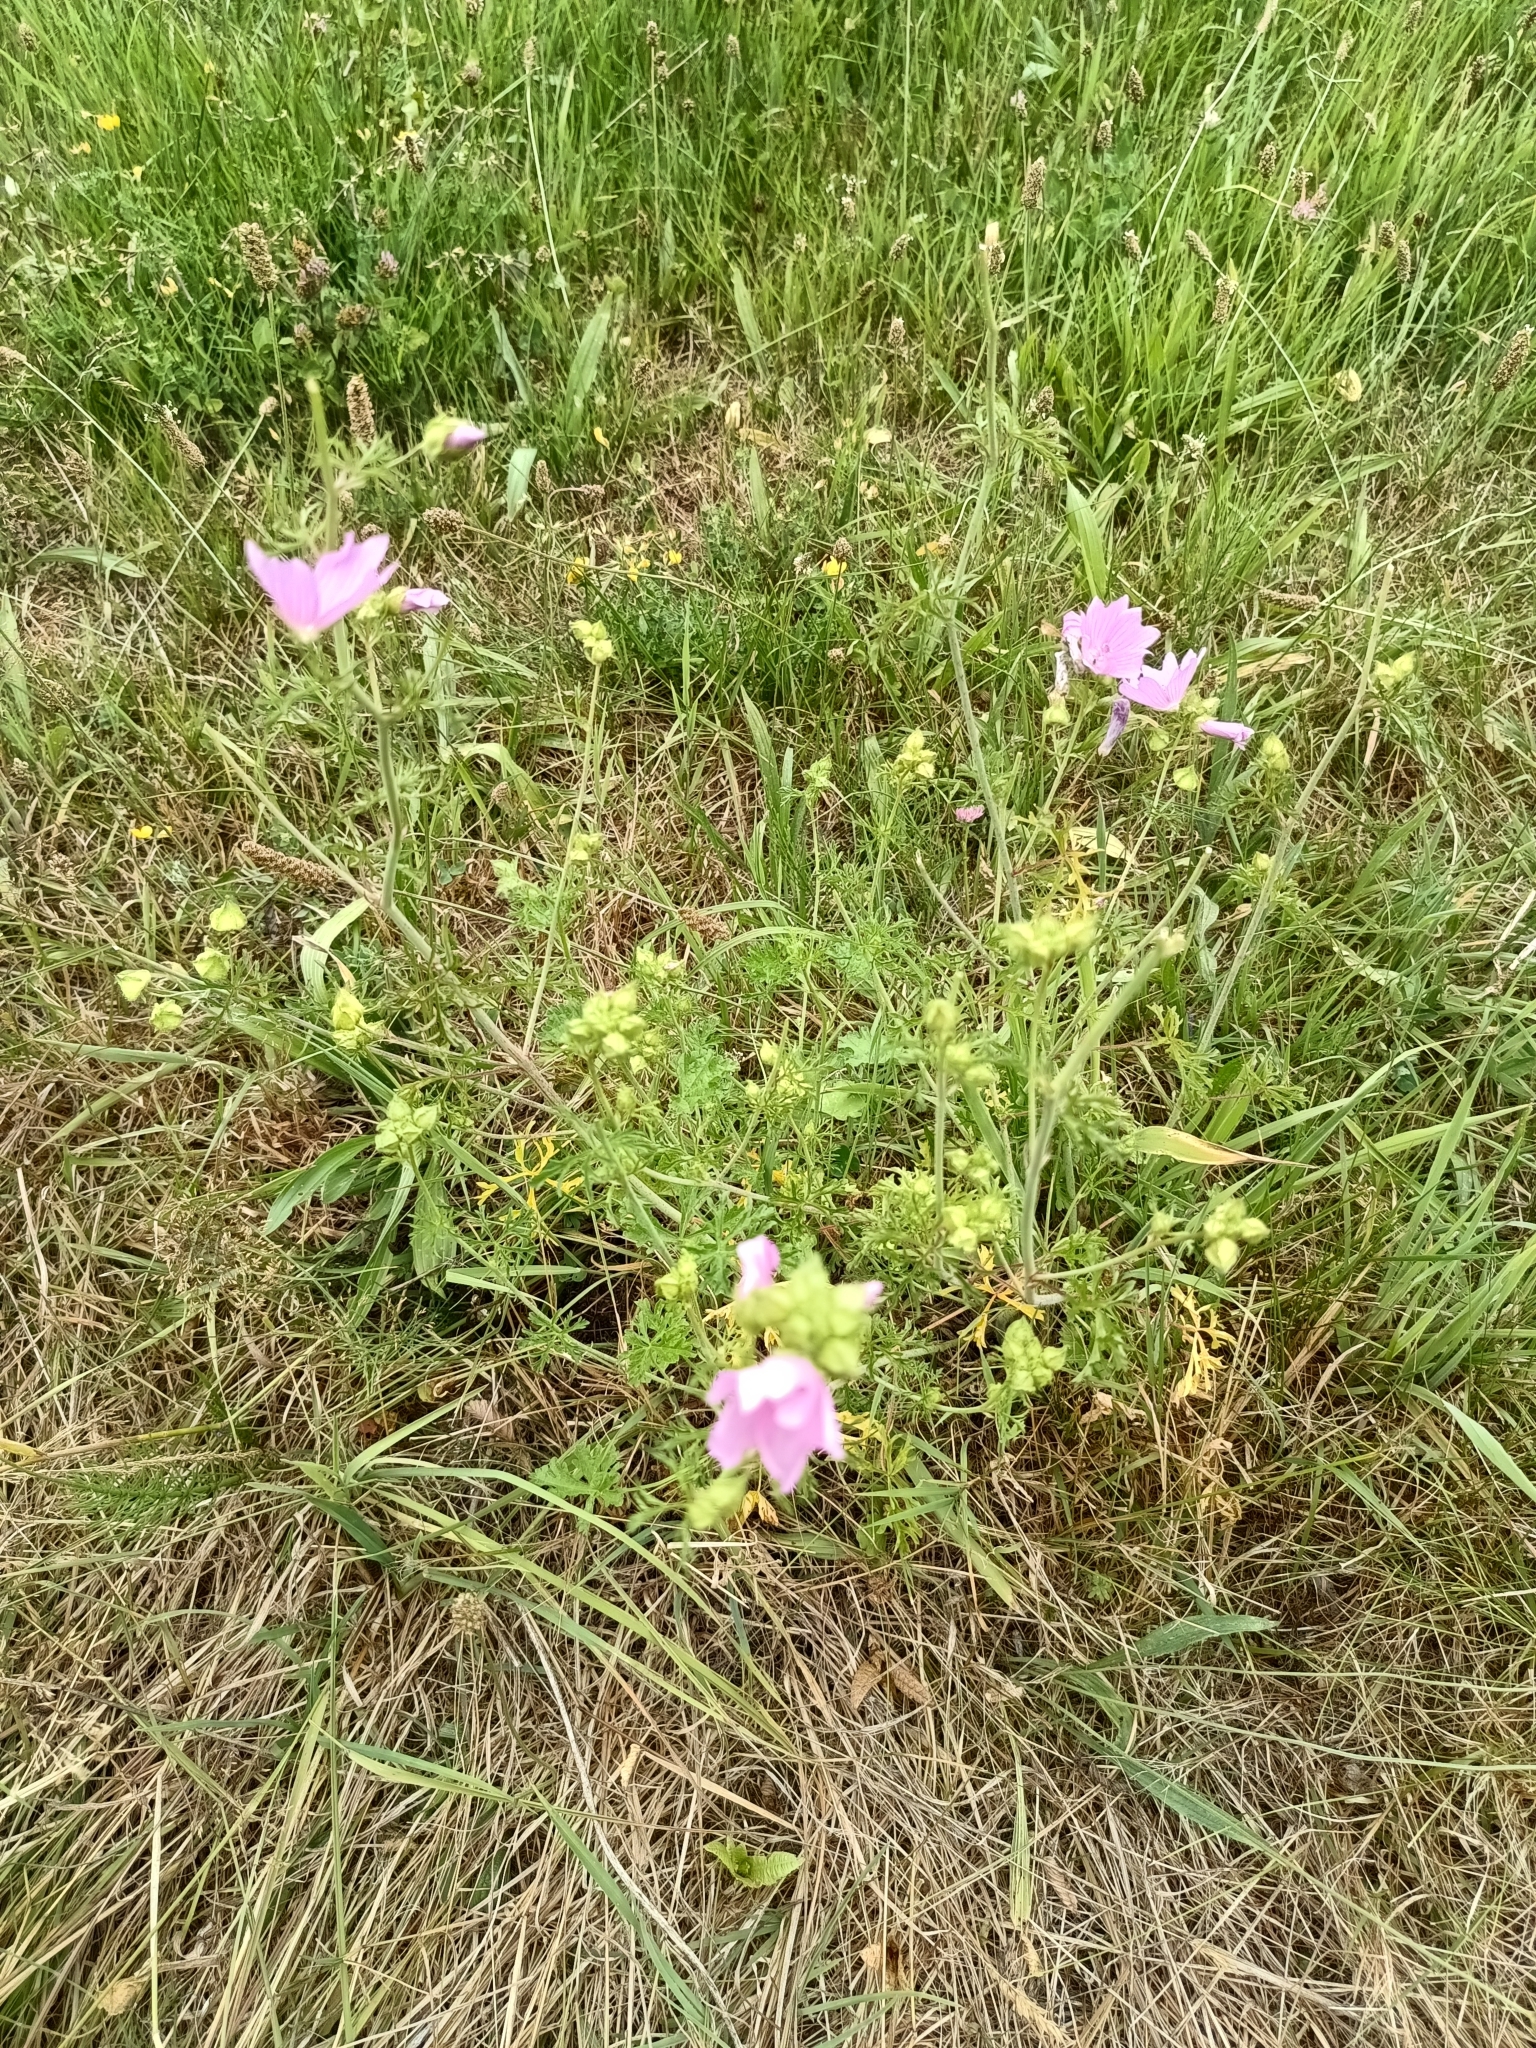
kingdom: Plantae
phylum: Tracheophyta
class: Magnoliopsida
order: Malvales
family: Malvaceae
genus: Malva
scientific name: Malva moschata
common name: Musk mallow
